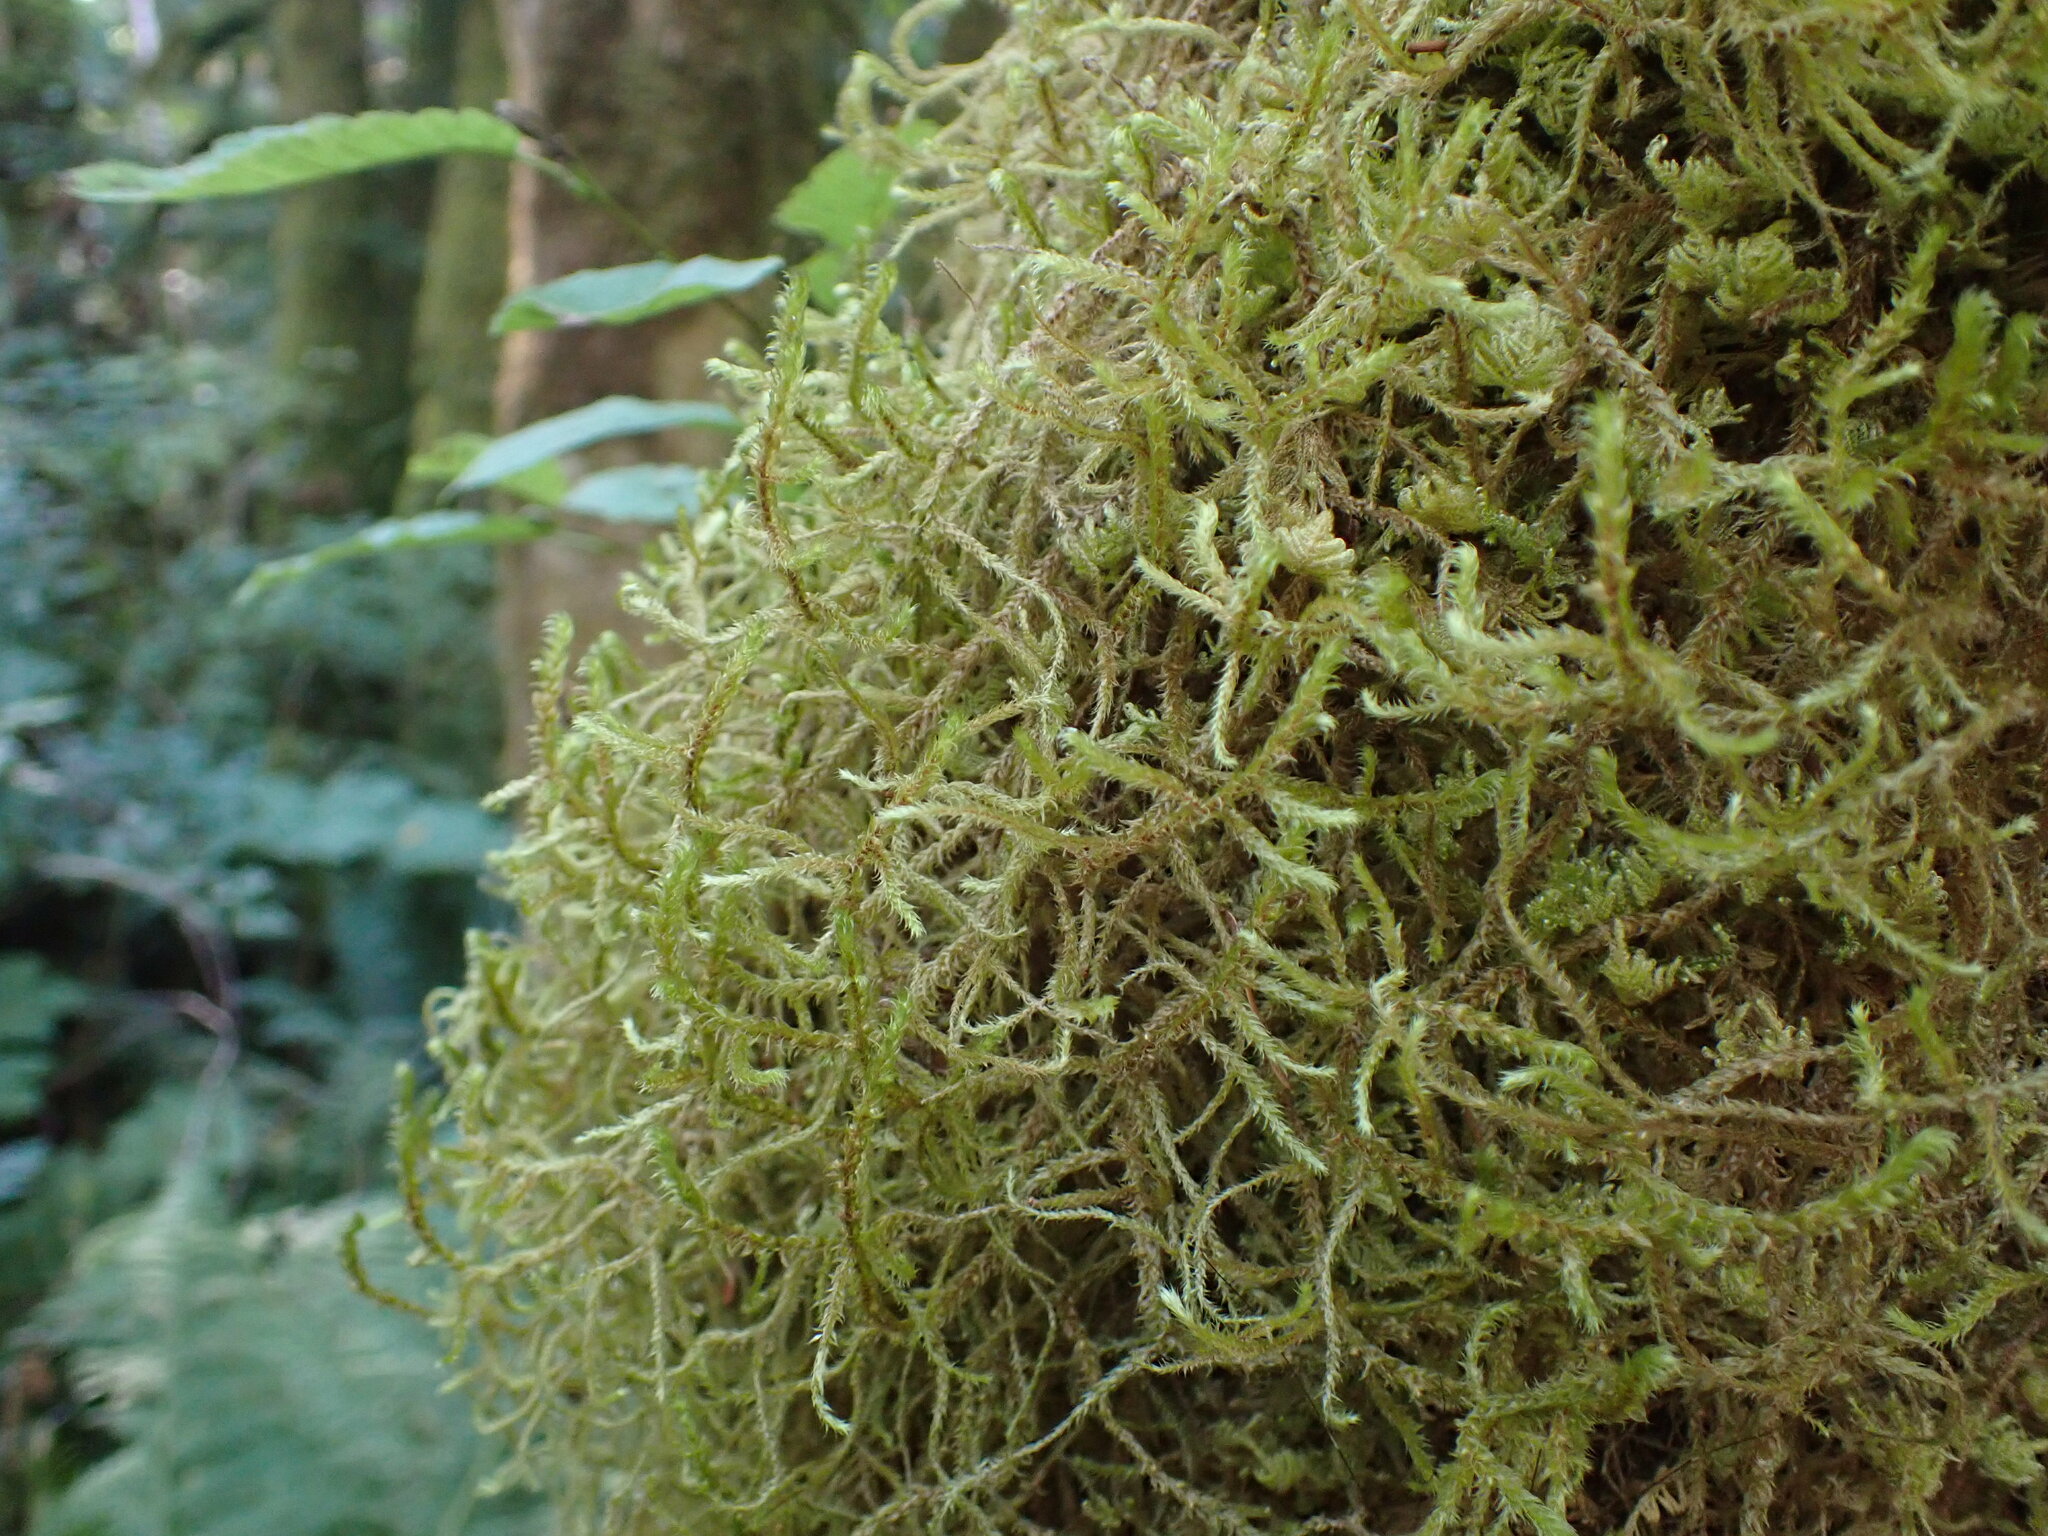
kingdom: Plantae
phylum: Bryophyta
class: Bryopsida
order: Hypnales
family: Antitrichiaceae
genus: Antitrichia
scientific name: Antitrichia curtipendula
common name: Pendulous wing-moss
